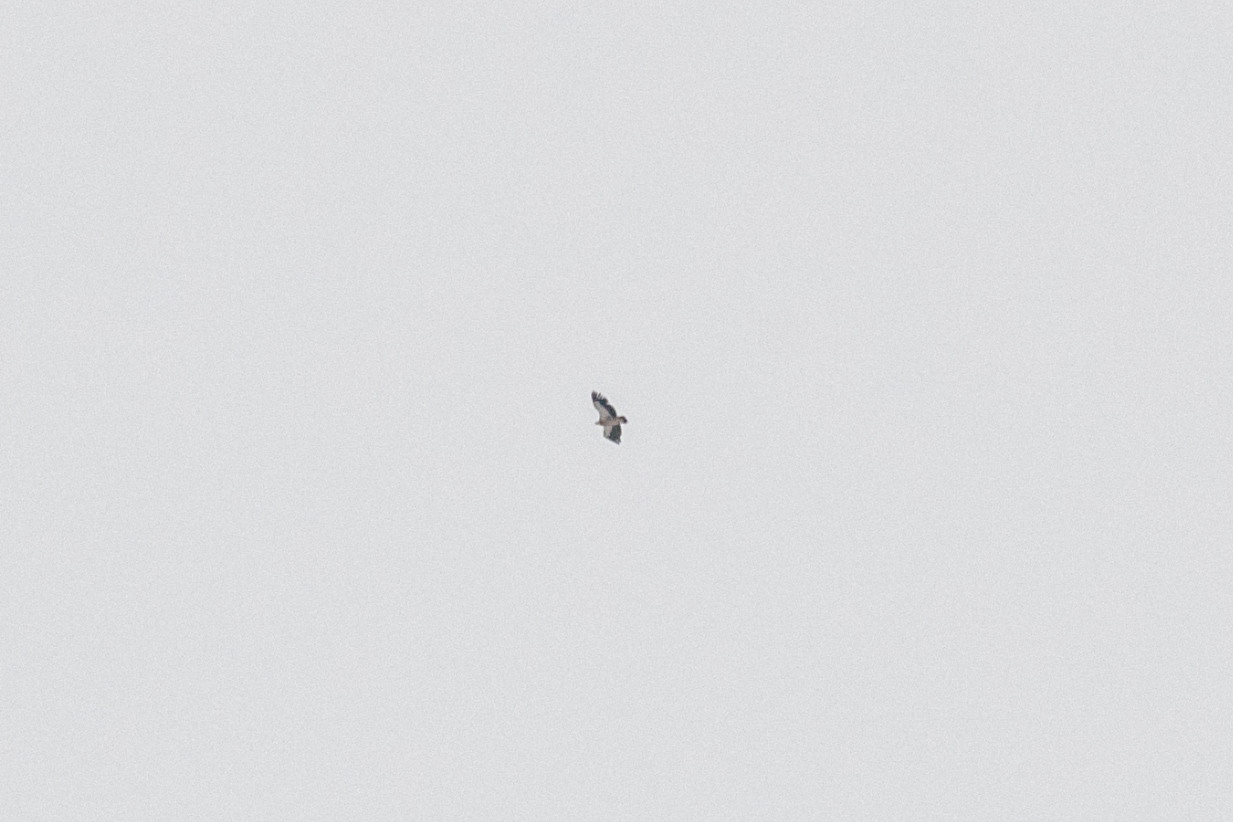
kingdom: Animalia
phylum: Chordata
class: Aves
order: Accipitriformes
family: Accipitridae
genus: Gyps
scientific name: Gyps himalayensis
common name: Himalayan griffon
